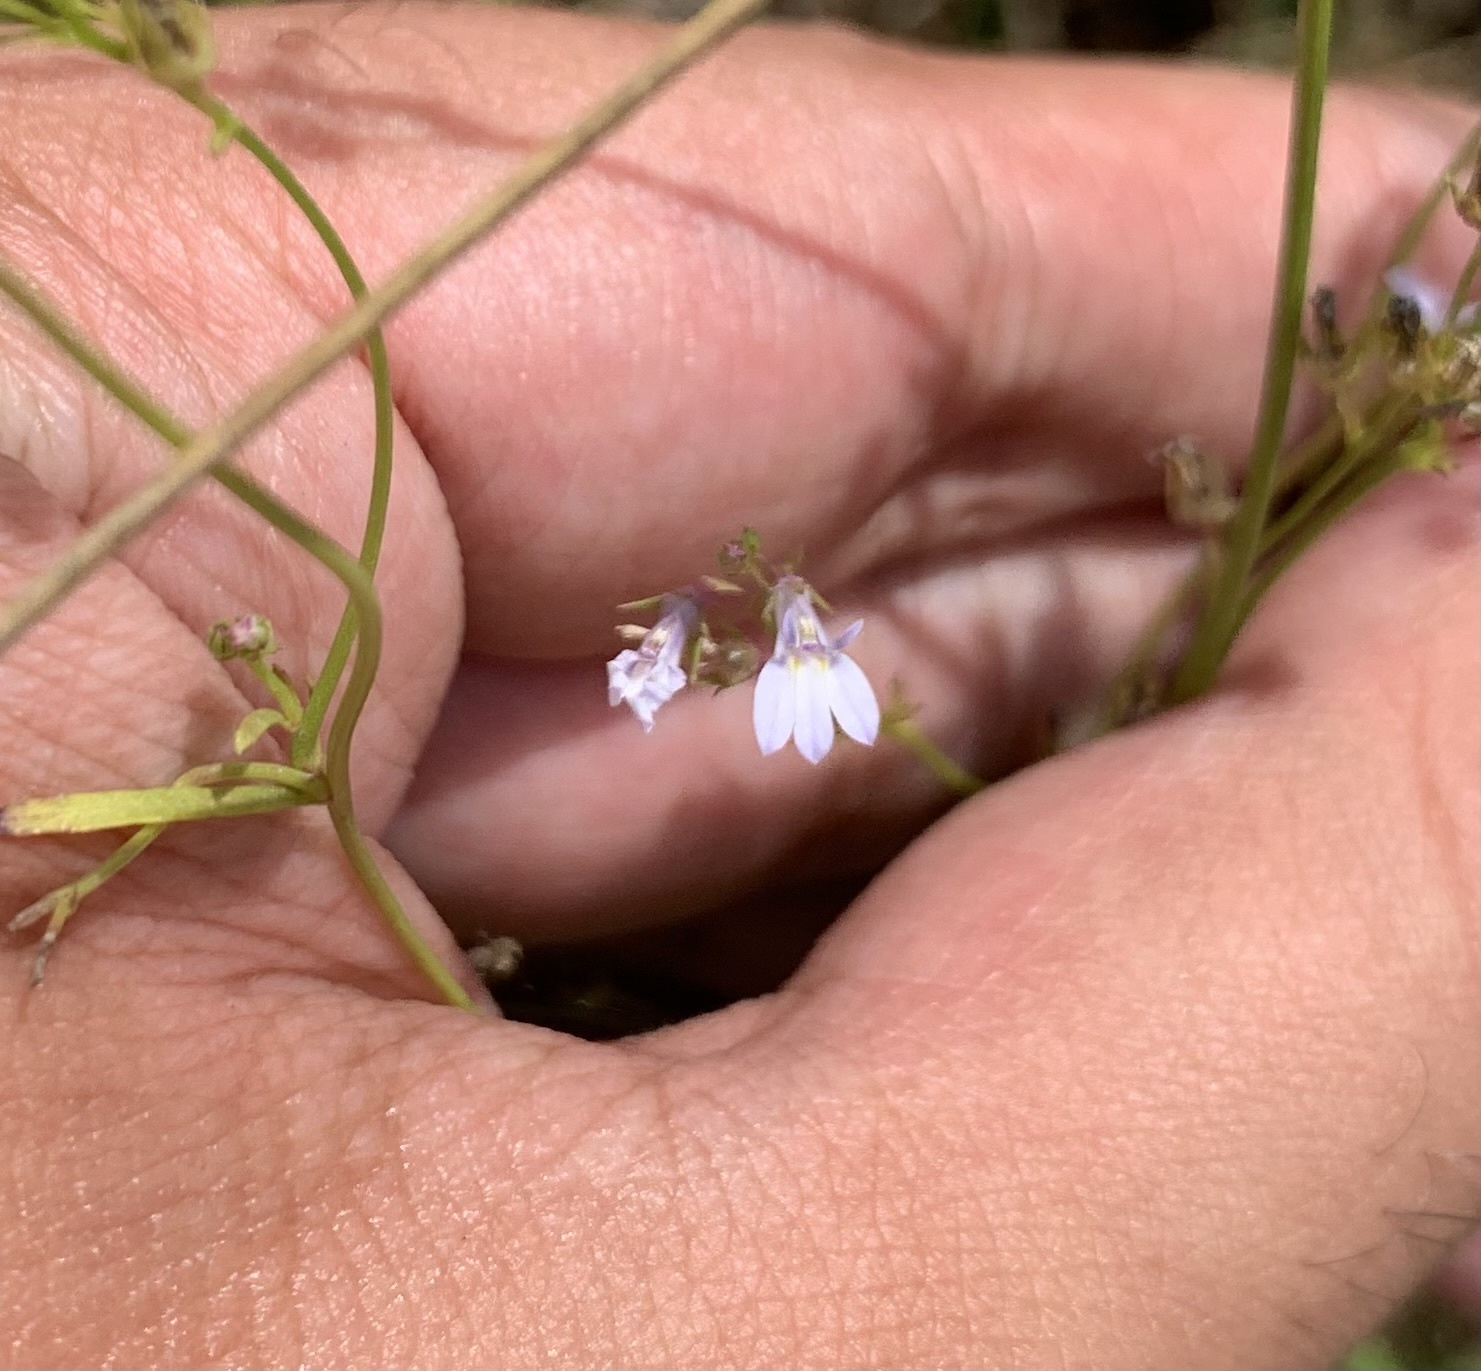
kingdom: Plantae
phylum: Tracheophyta
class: Magnoliopsida
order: Asterales
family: Campanulaceae
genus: Lobelia
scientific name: Lobelia nuttallii
